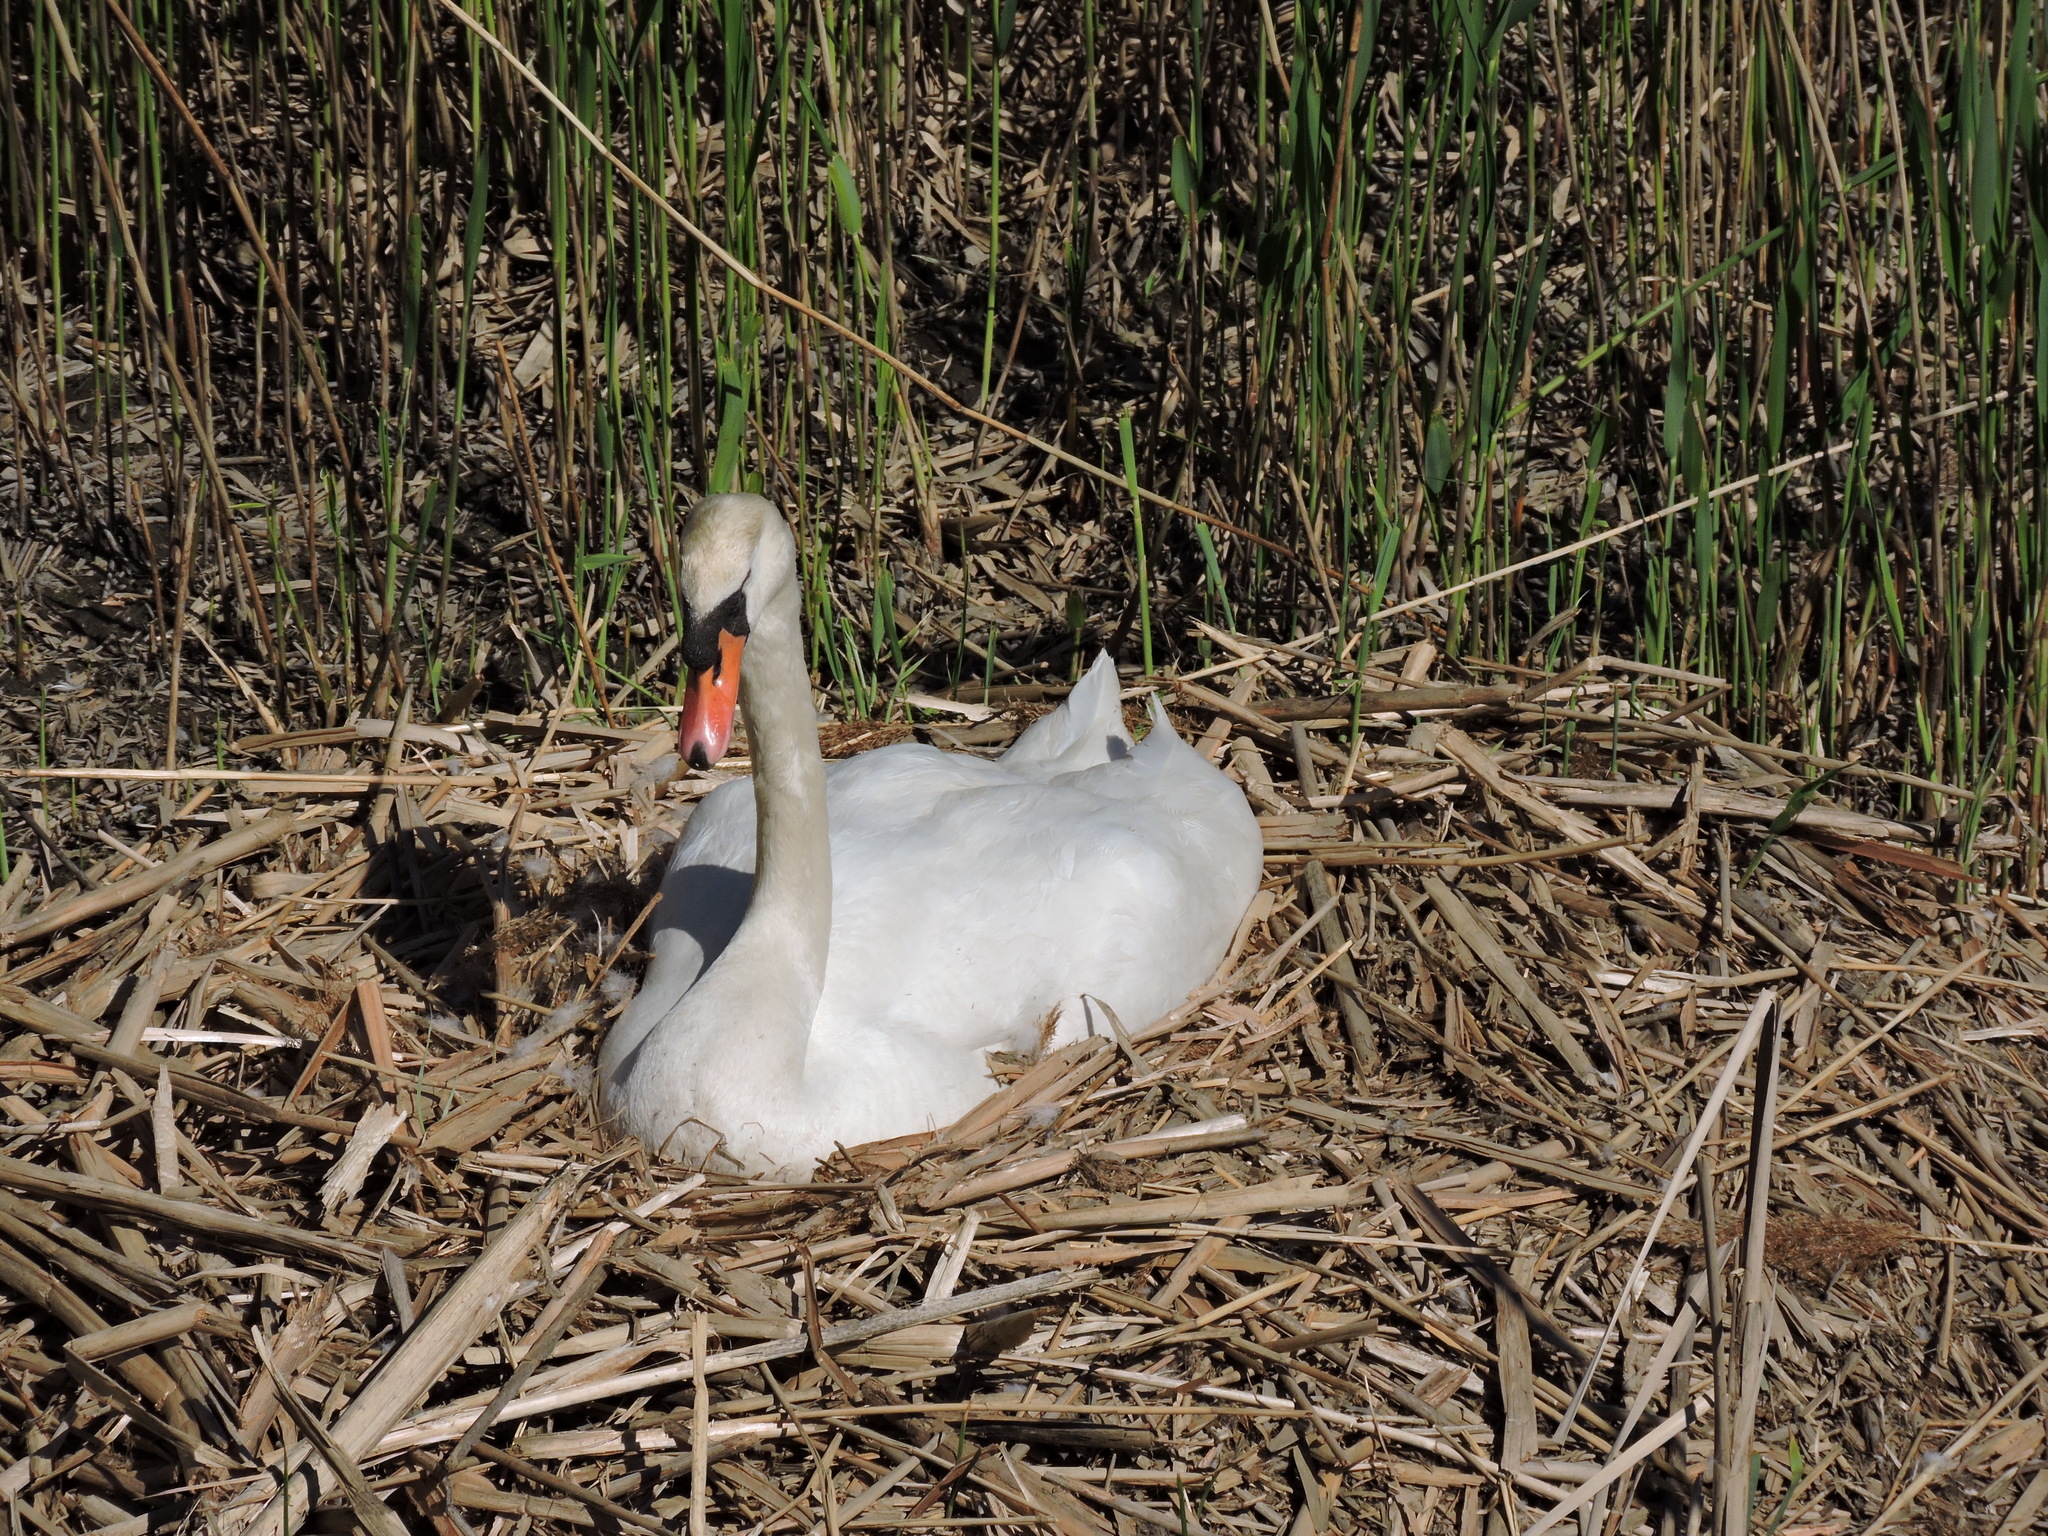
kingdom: Animalia
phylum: Chordata
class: Aves
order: Anseriformes
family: Anatidae
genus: Cygnus
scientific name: Cygnus olor
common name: Mute swan
